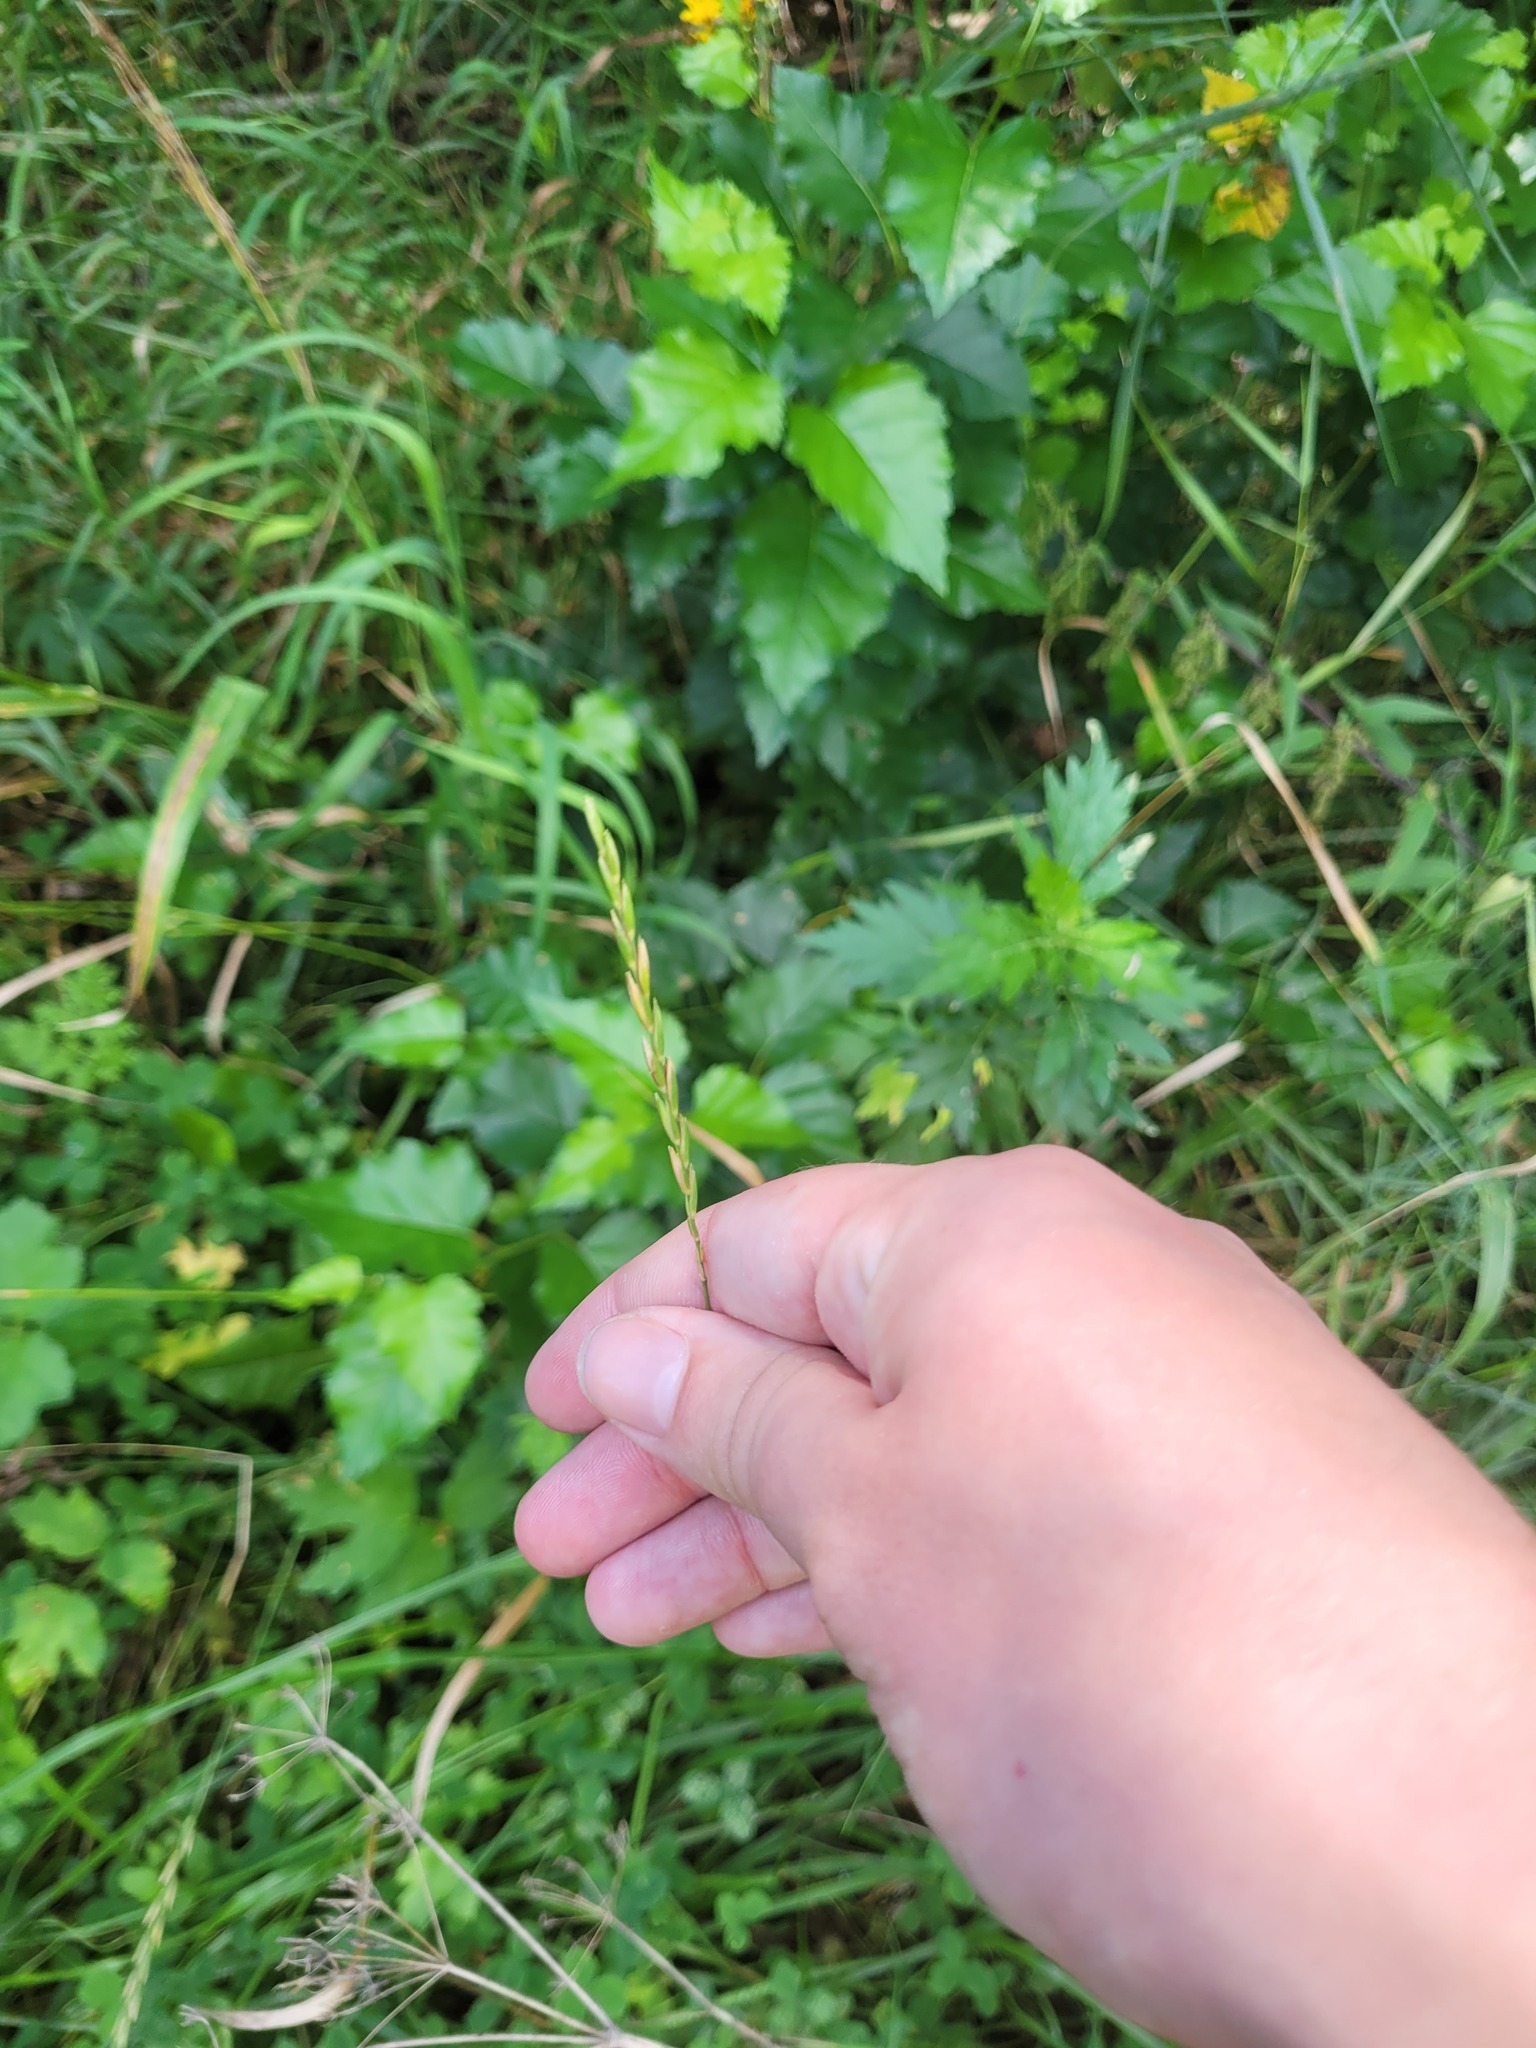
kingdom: Plantae
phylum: Tracheophyta
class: Liliopsida
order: Poales
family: Poaceae
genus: Elymus
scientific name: Elymus repens
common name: Quackgrass
